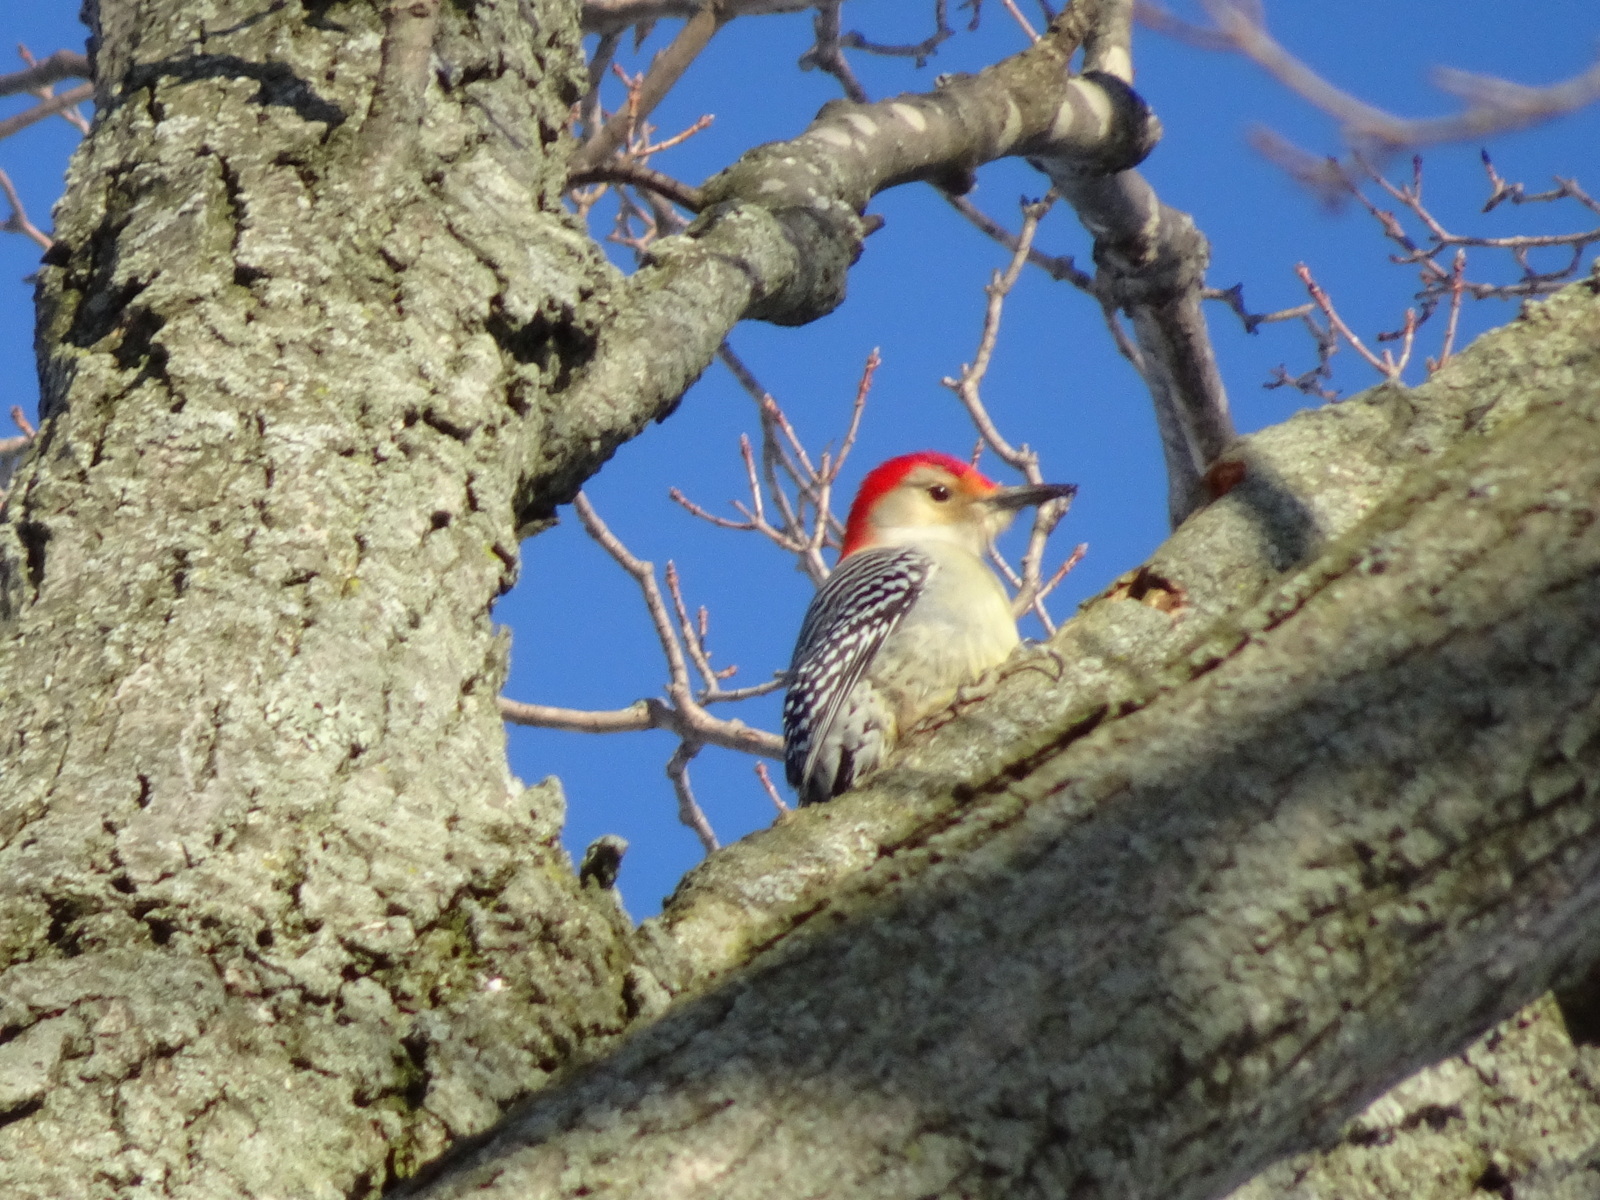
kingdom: Animalia
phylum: Chordata
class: Aves
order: Piciformes
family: Picidae
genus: Melanerpes
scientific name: Melanerpes carolinus
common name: Red-bellied woodpecker
